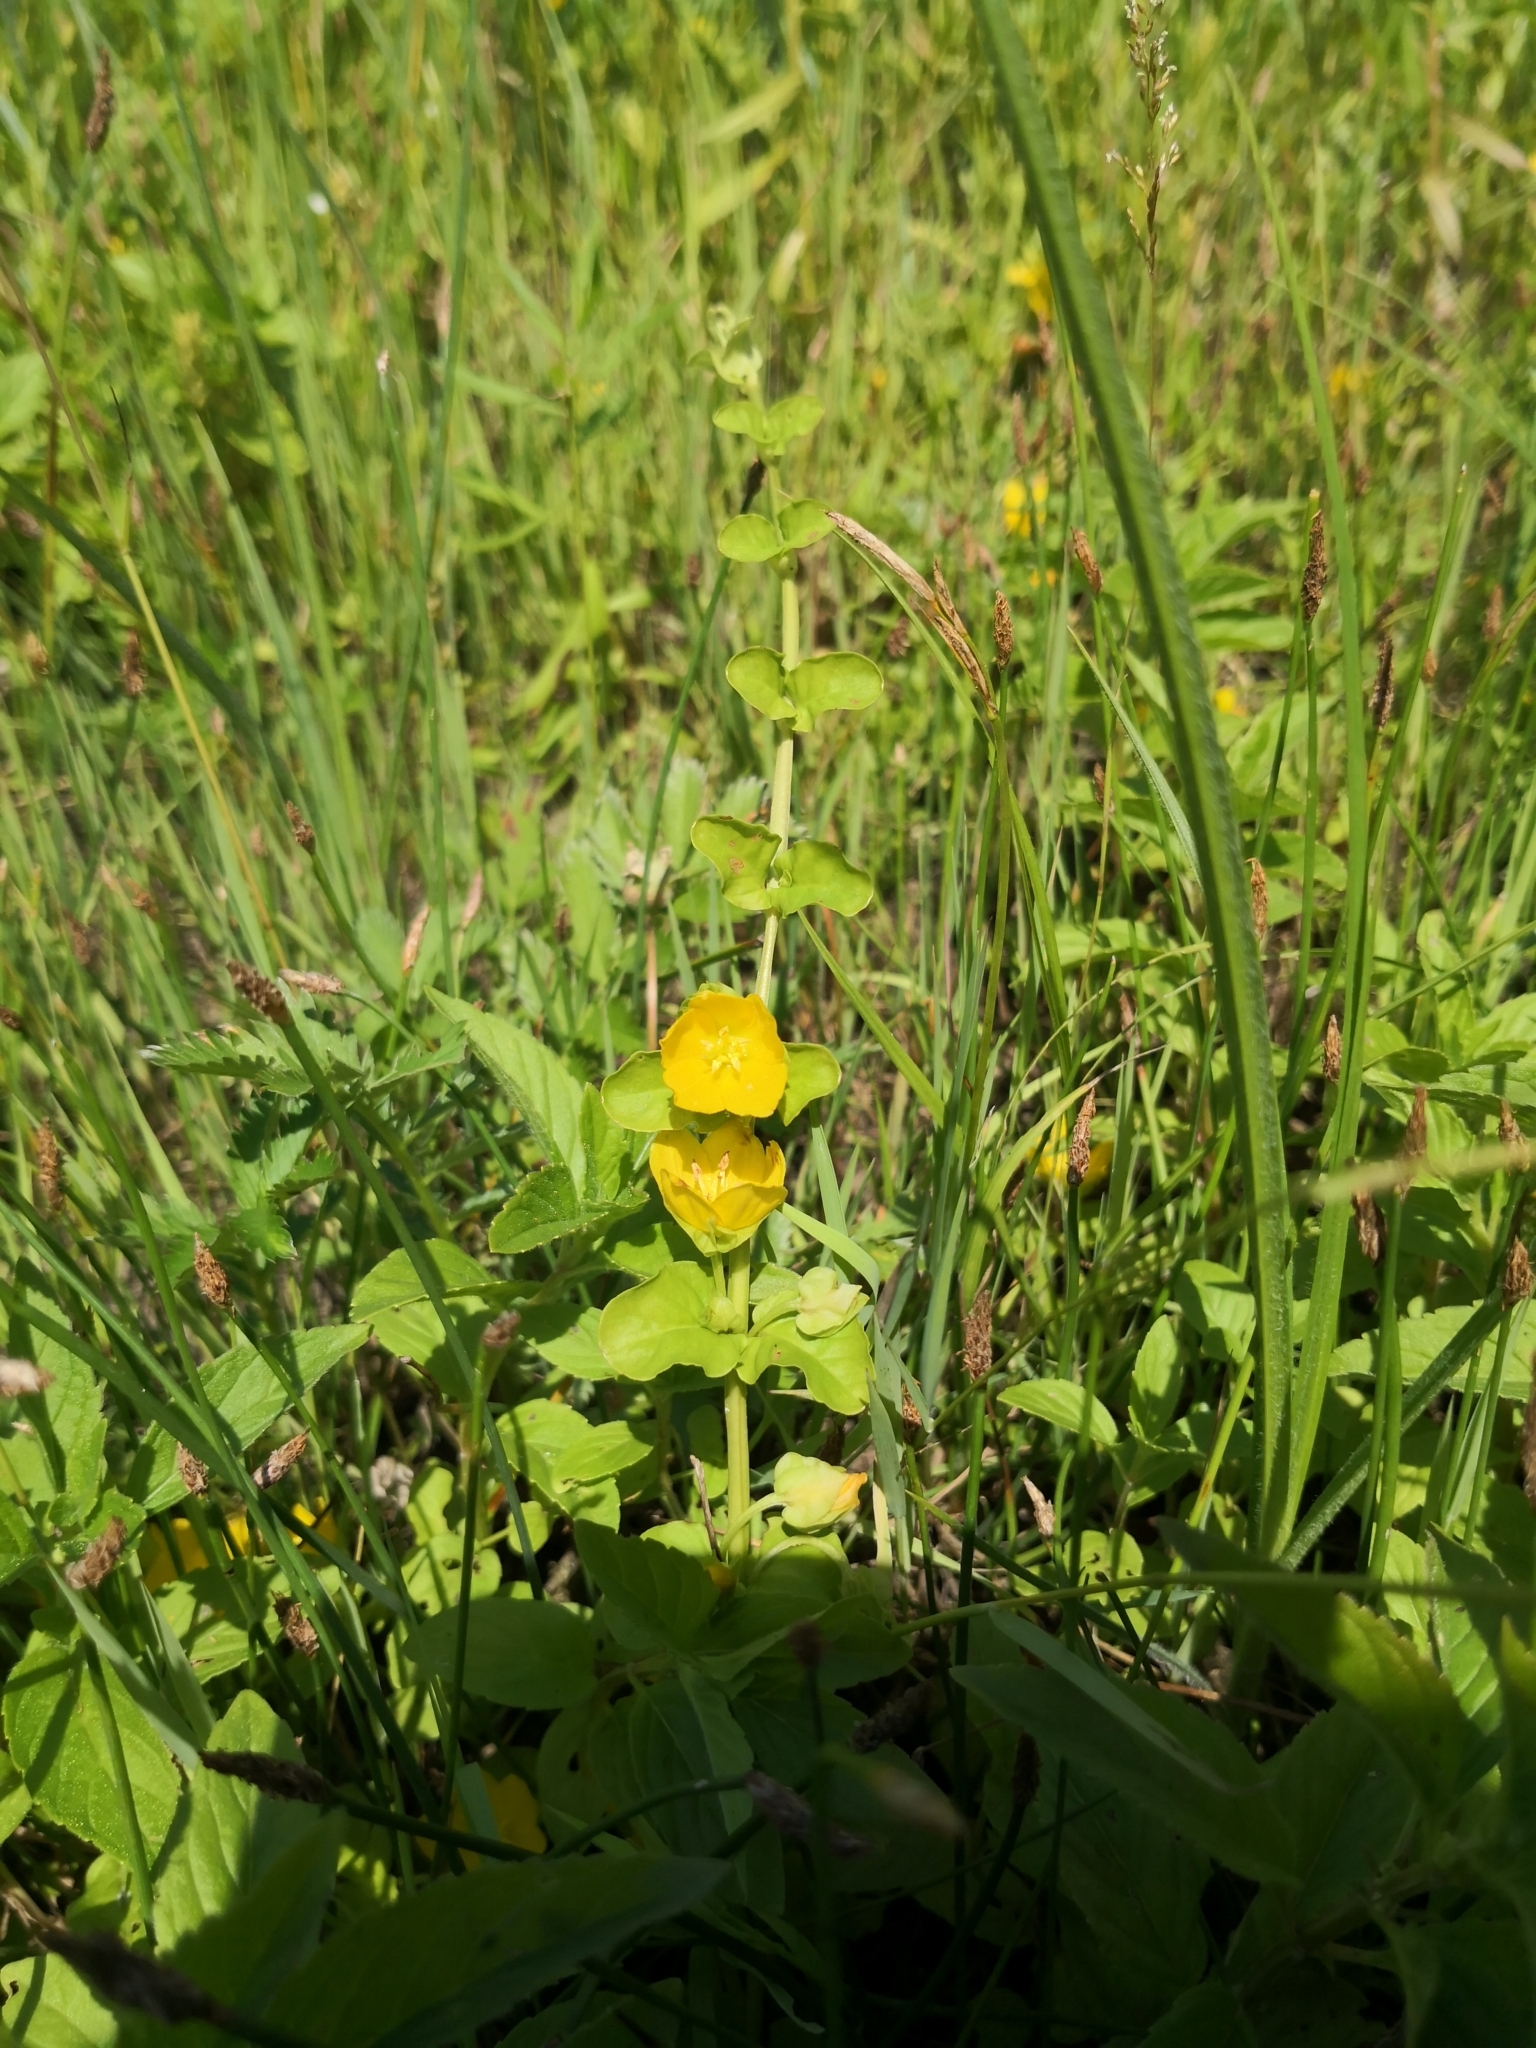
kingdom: Plantae
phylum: Tracheophyta
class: Magnoliopsida
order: Ericales
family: Primulaceae
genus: Lysimachia
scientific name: Lysimachia nummularia
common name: Moneywort
